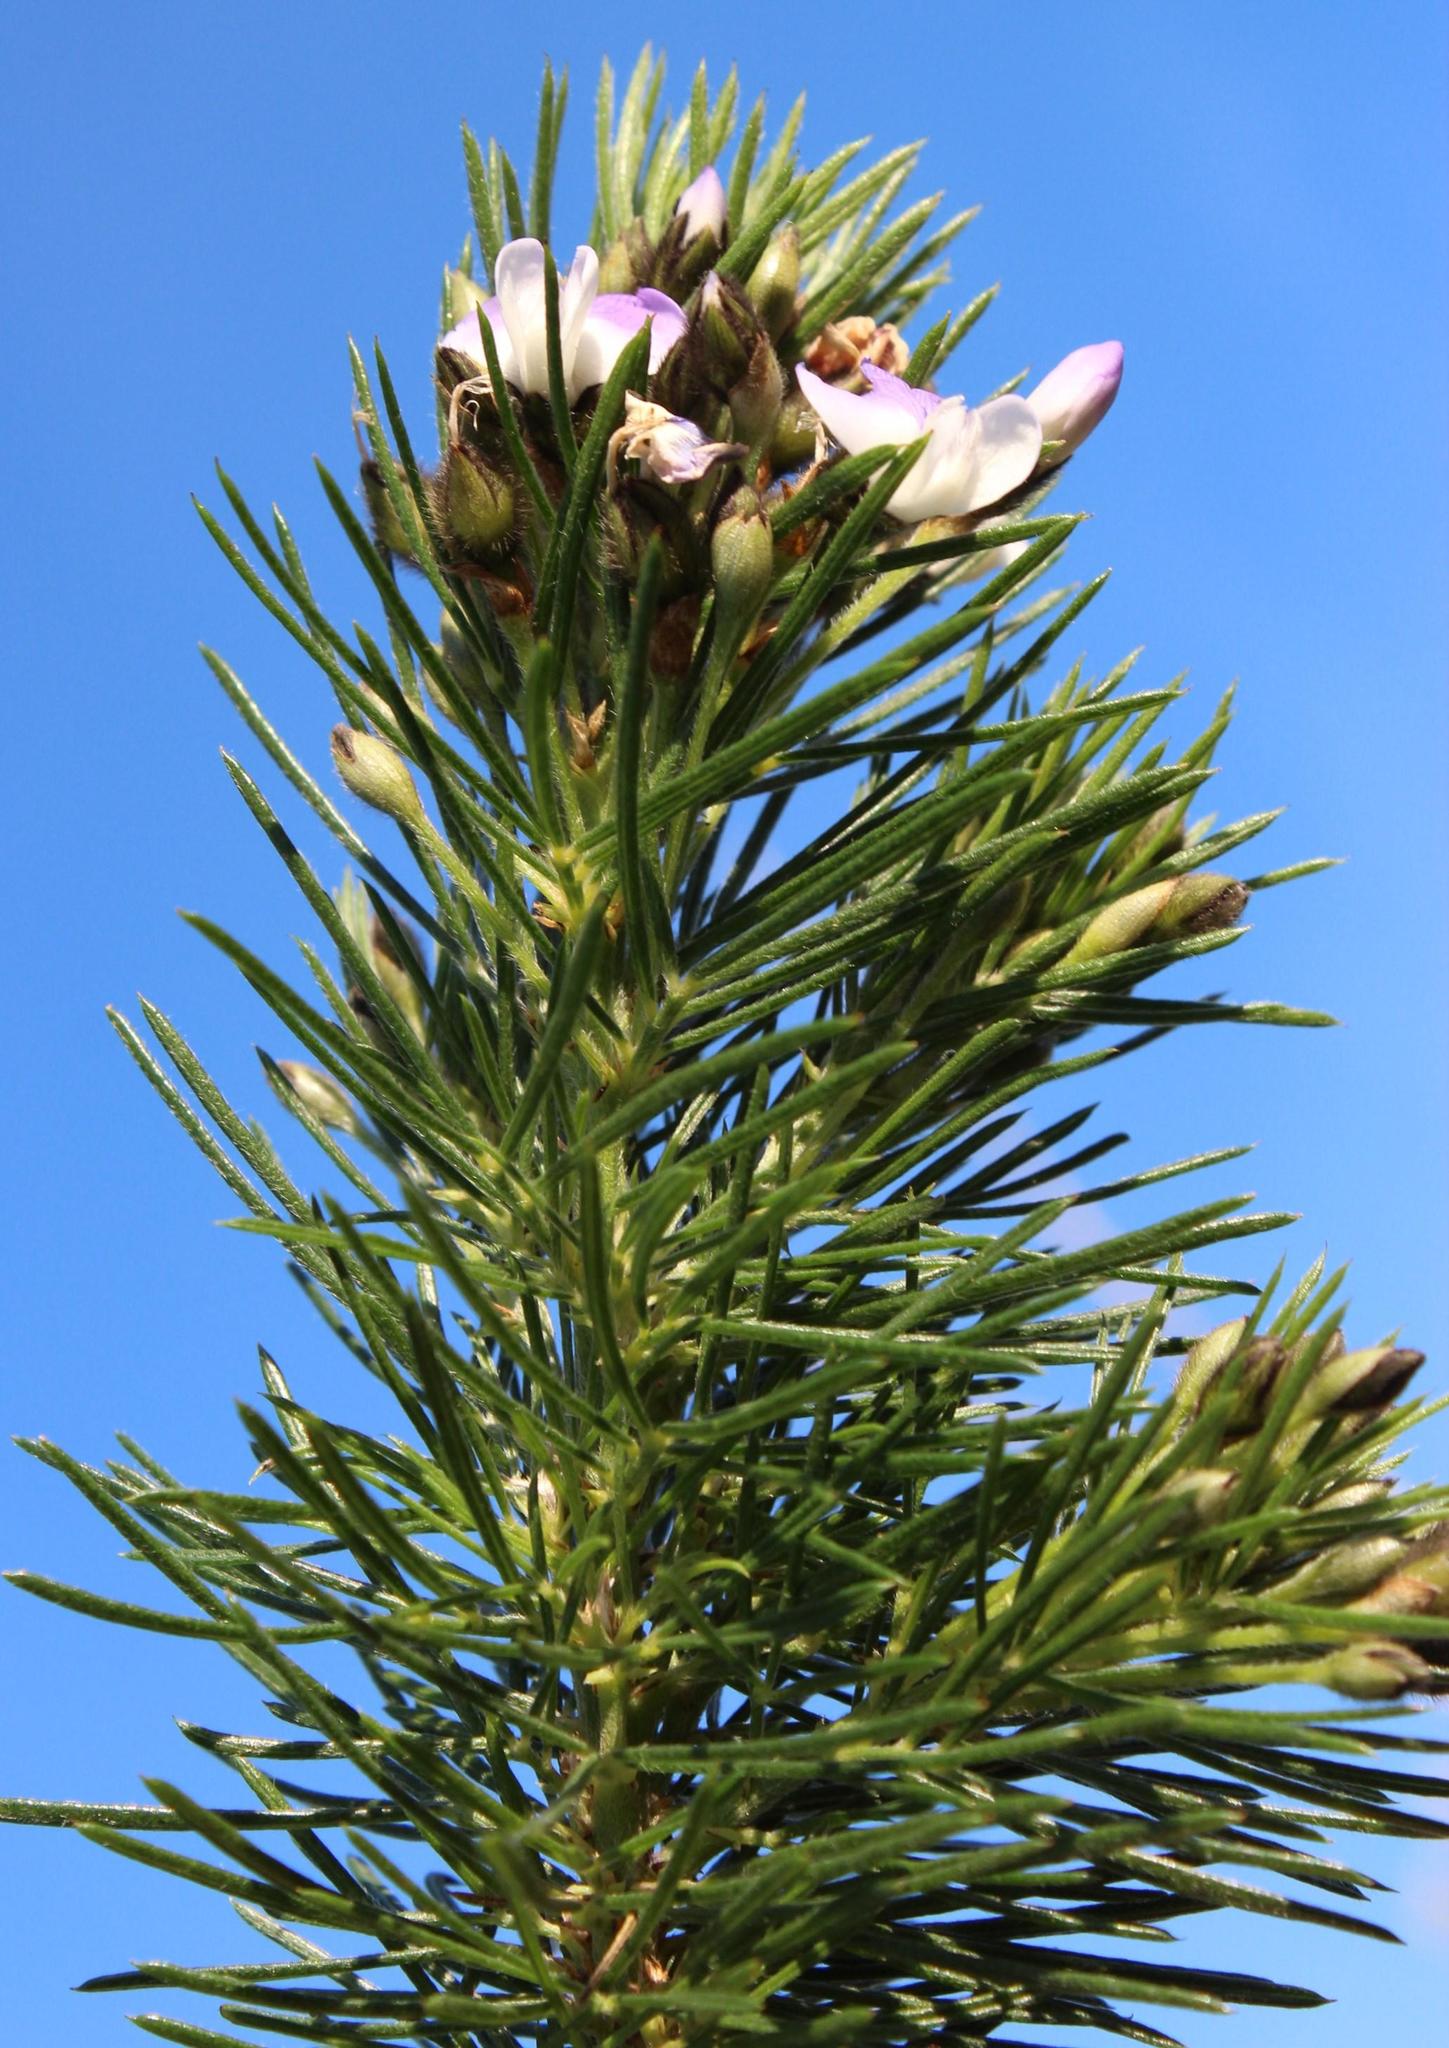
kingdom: Plantae
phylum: Tracheophyta
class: Magnoliopsida
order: Fabales
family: Fabaceae
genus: Psoralea
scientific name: Psoralea arborea
